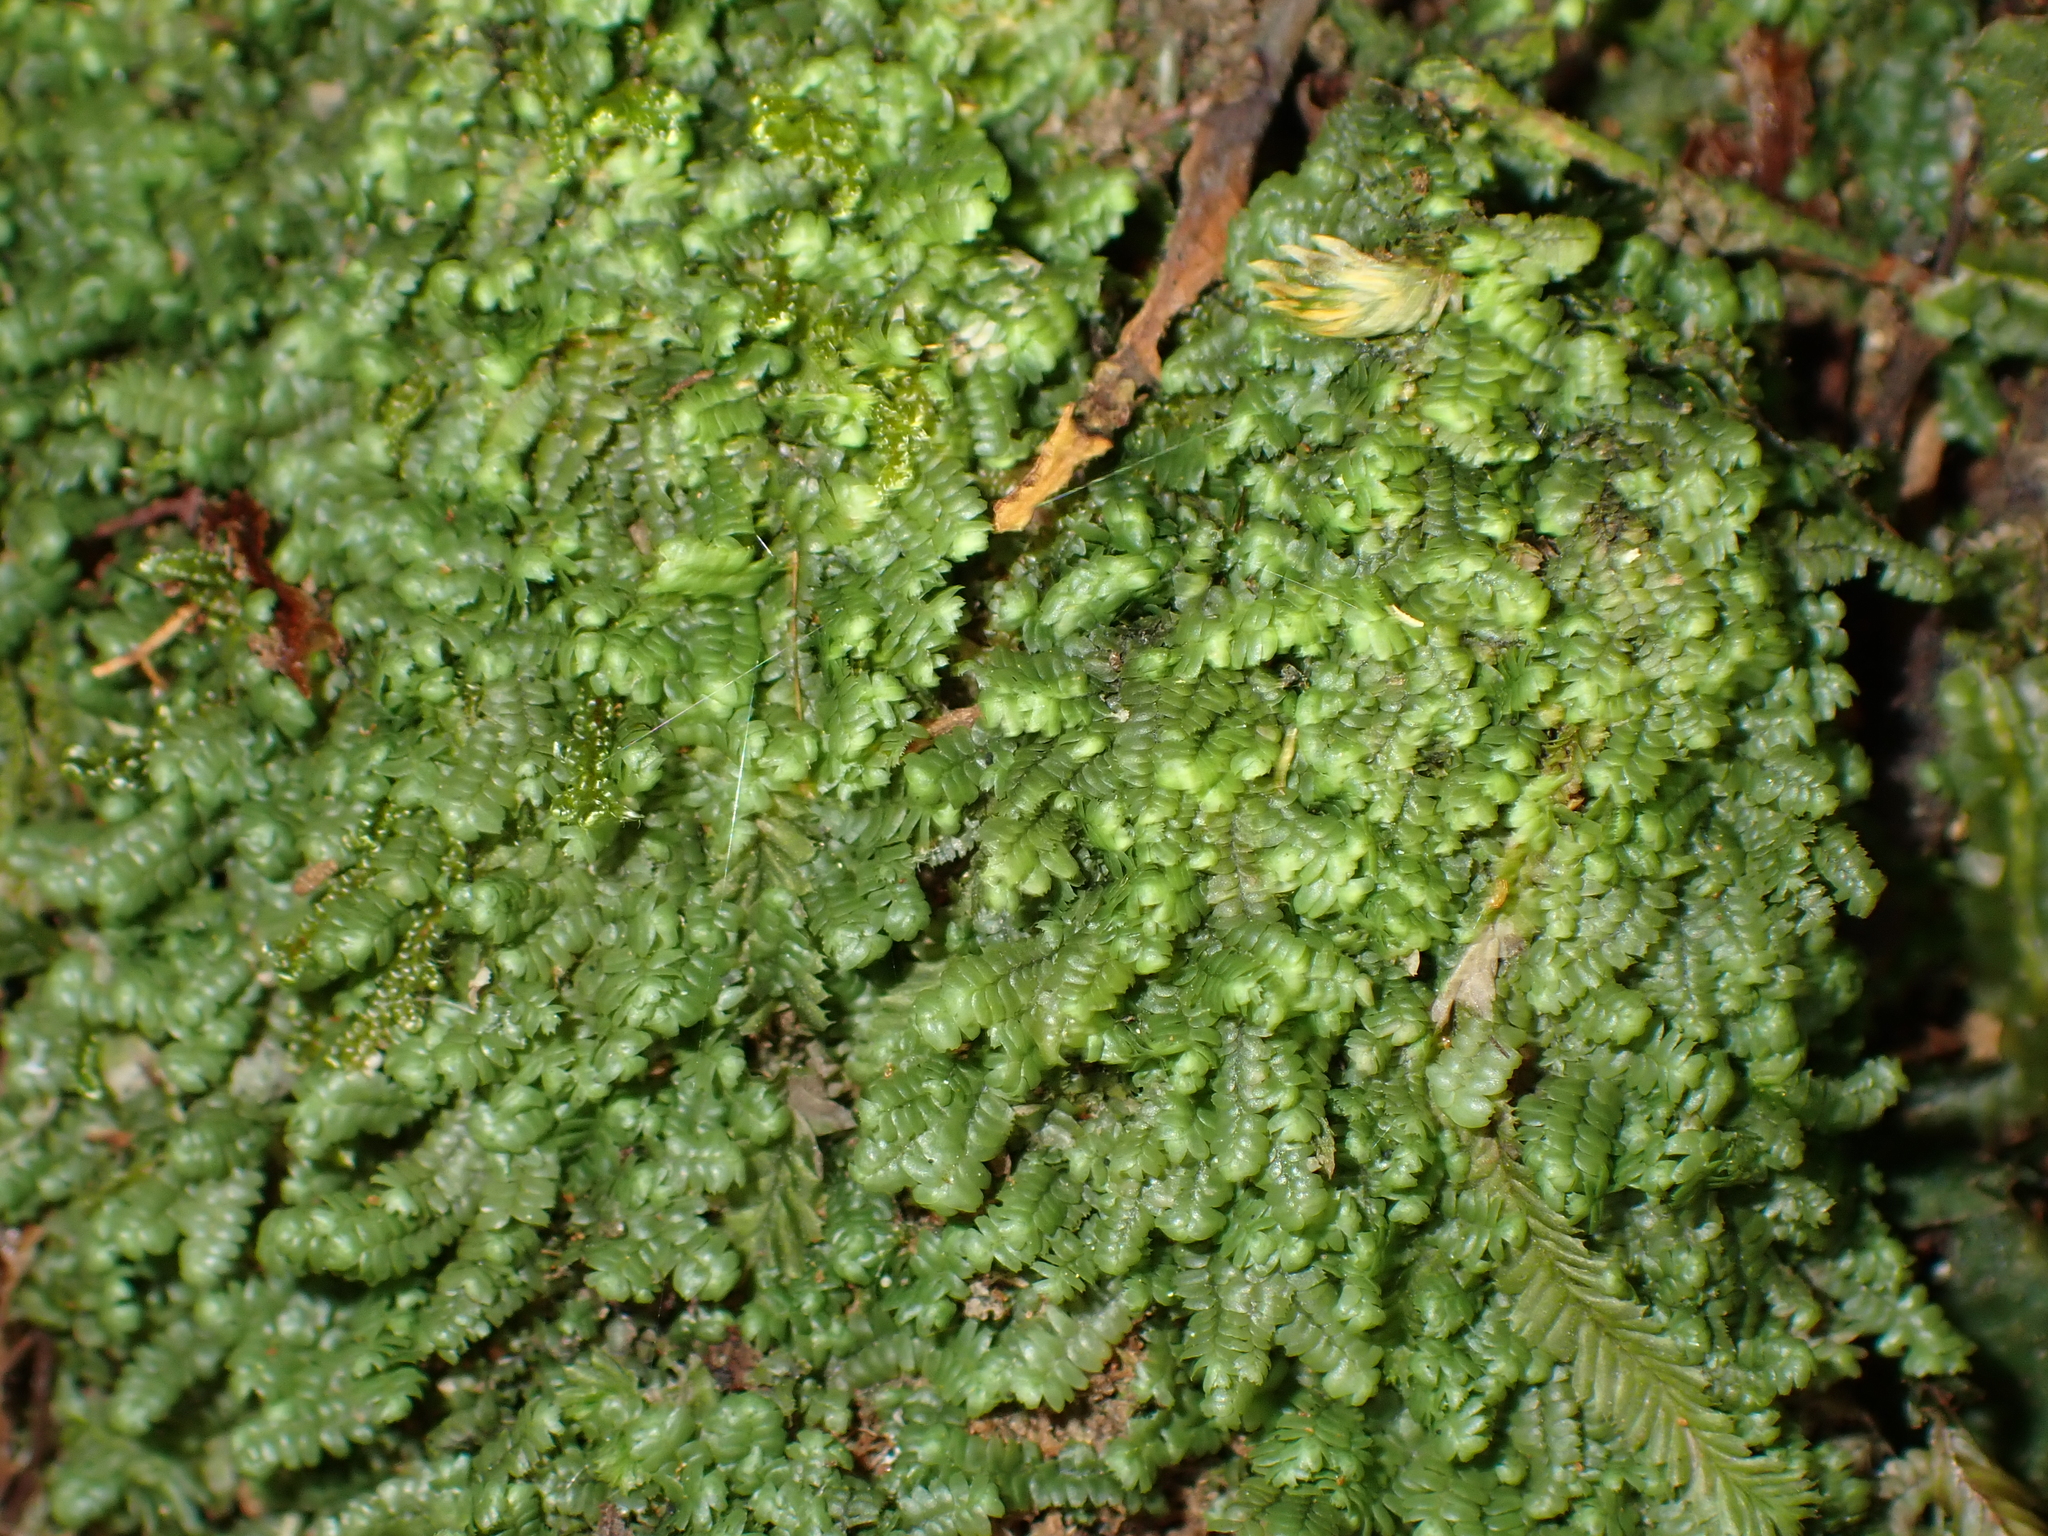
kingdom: Plantae
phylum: Marchantiophyta
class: Jungermanniopsida
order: Jungermanniales
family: Lepidoziaceae
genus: Bazzania
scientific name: Bazzania tayloriana
